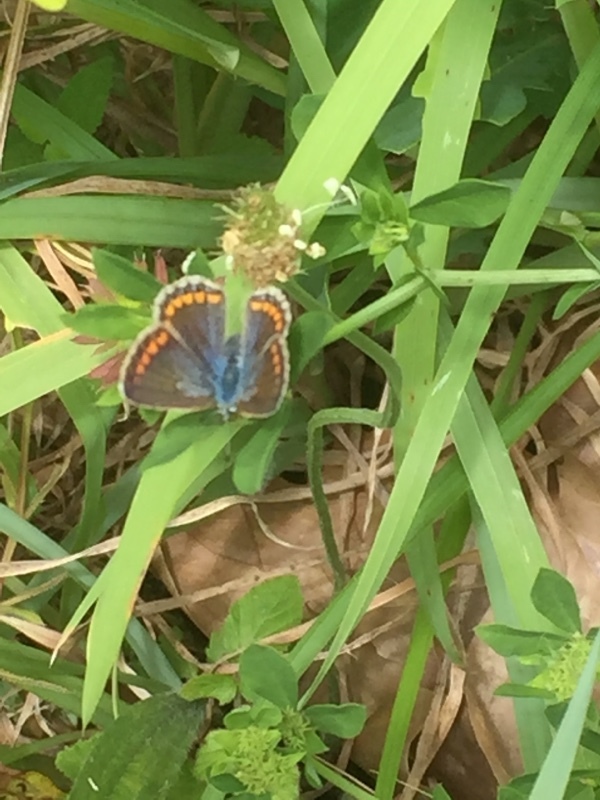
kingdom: Animalia
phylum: Arthropoda
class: Insecta
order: Lepidoptera
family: Lycaenidae
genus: Polyommatus
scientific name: Polyommatus icarus
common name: Common blue
